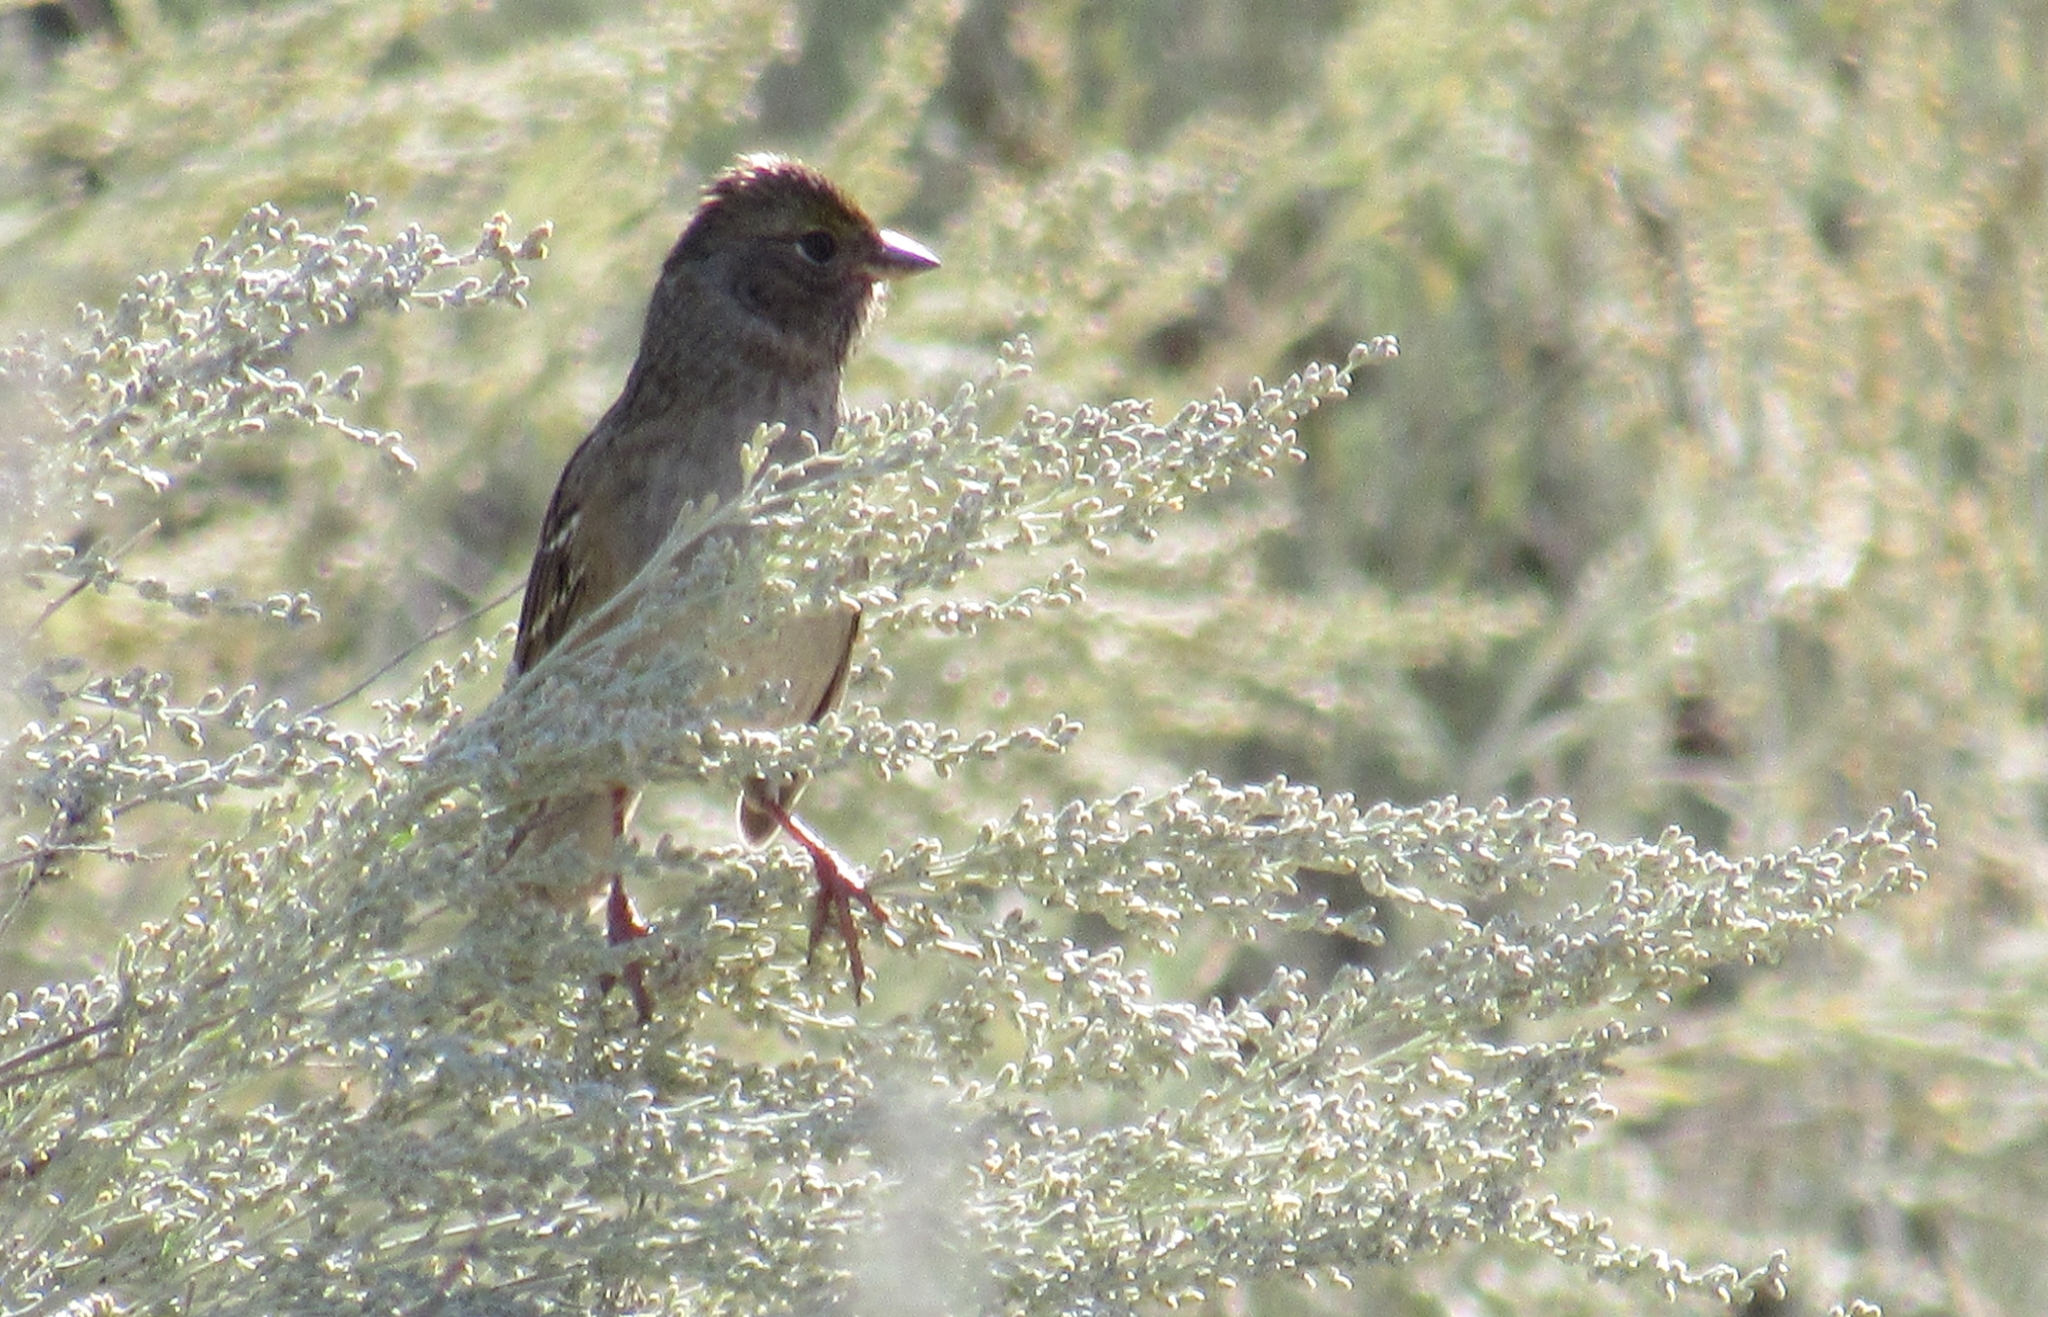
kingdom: Animalia
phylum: Chordata
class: Aves
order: Passeriformes
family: Passerellidae
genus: Zonotrichia
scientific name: Zonotrichia atricapilla
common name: Golden-crowned sparrow
